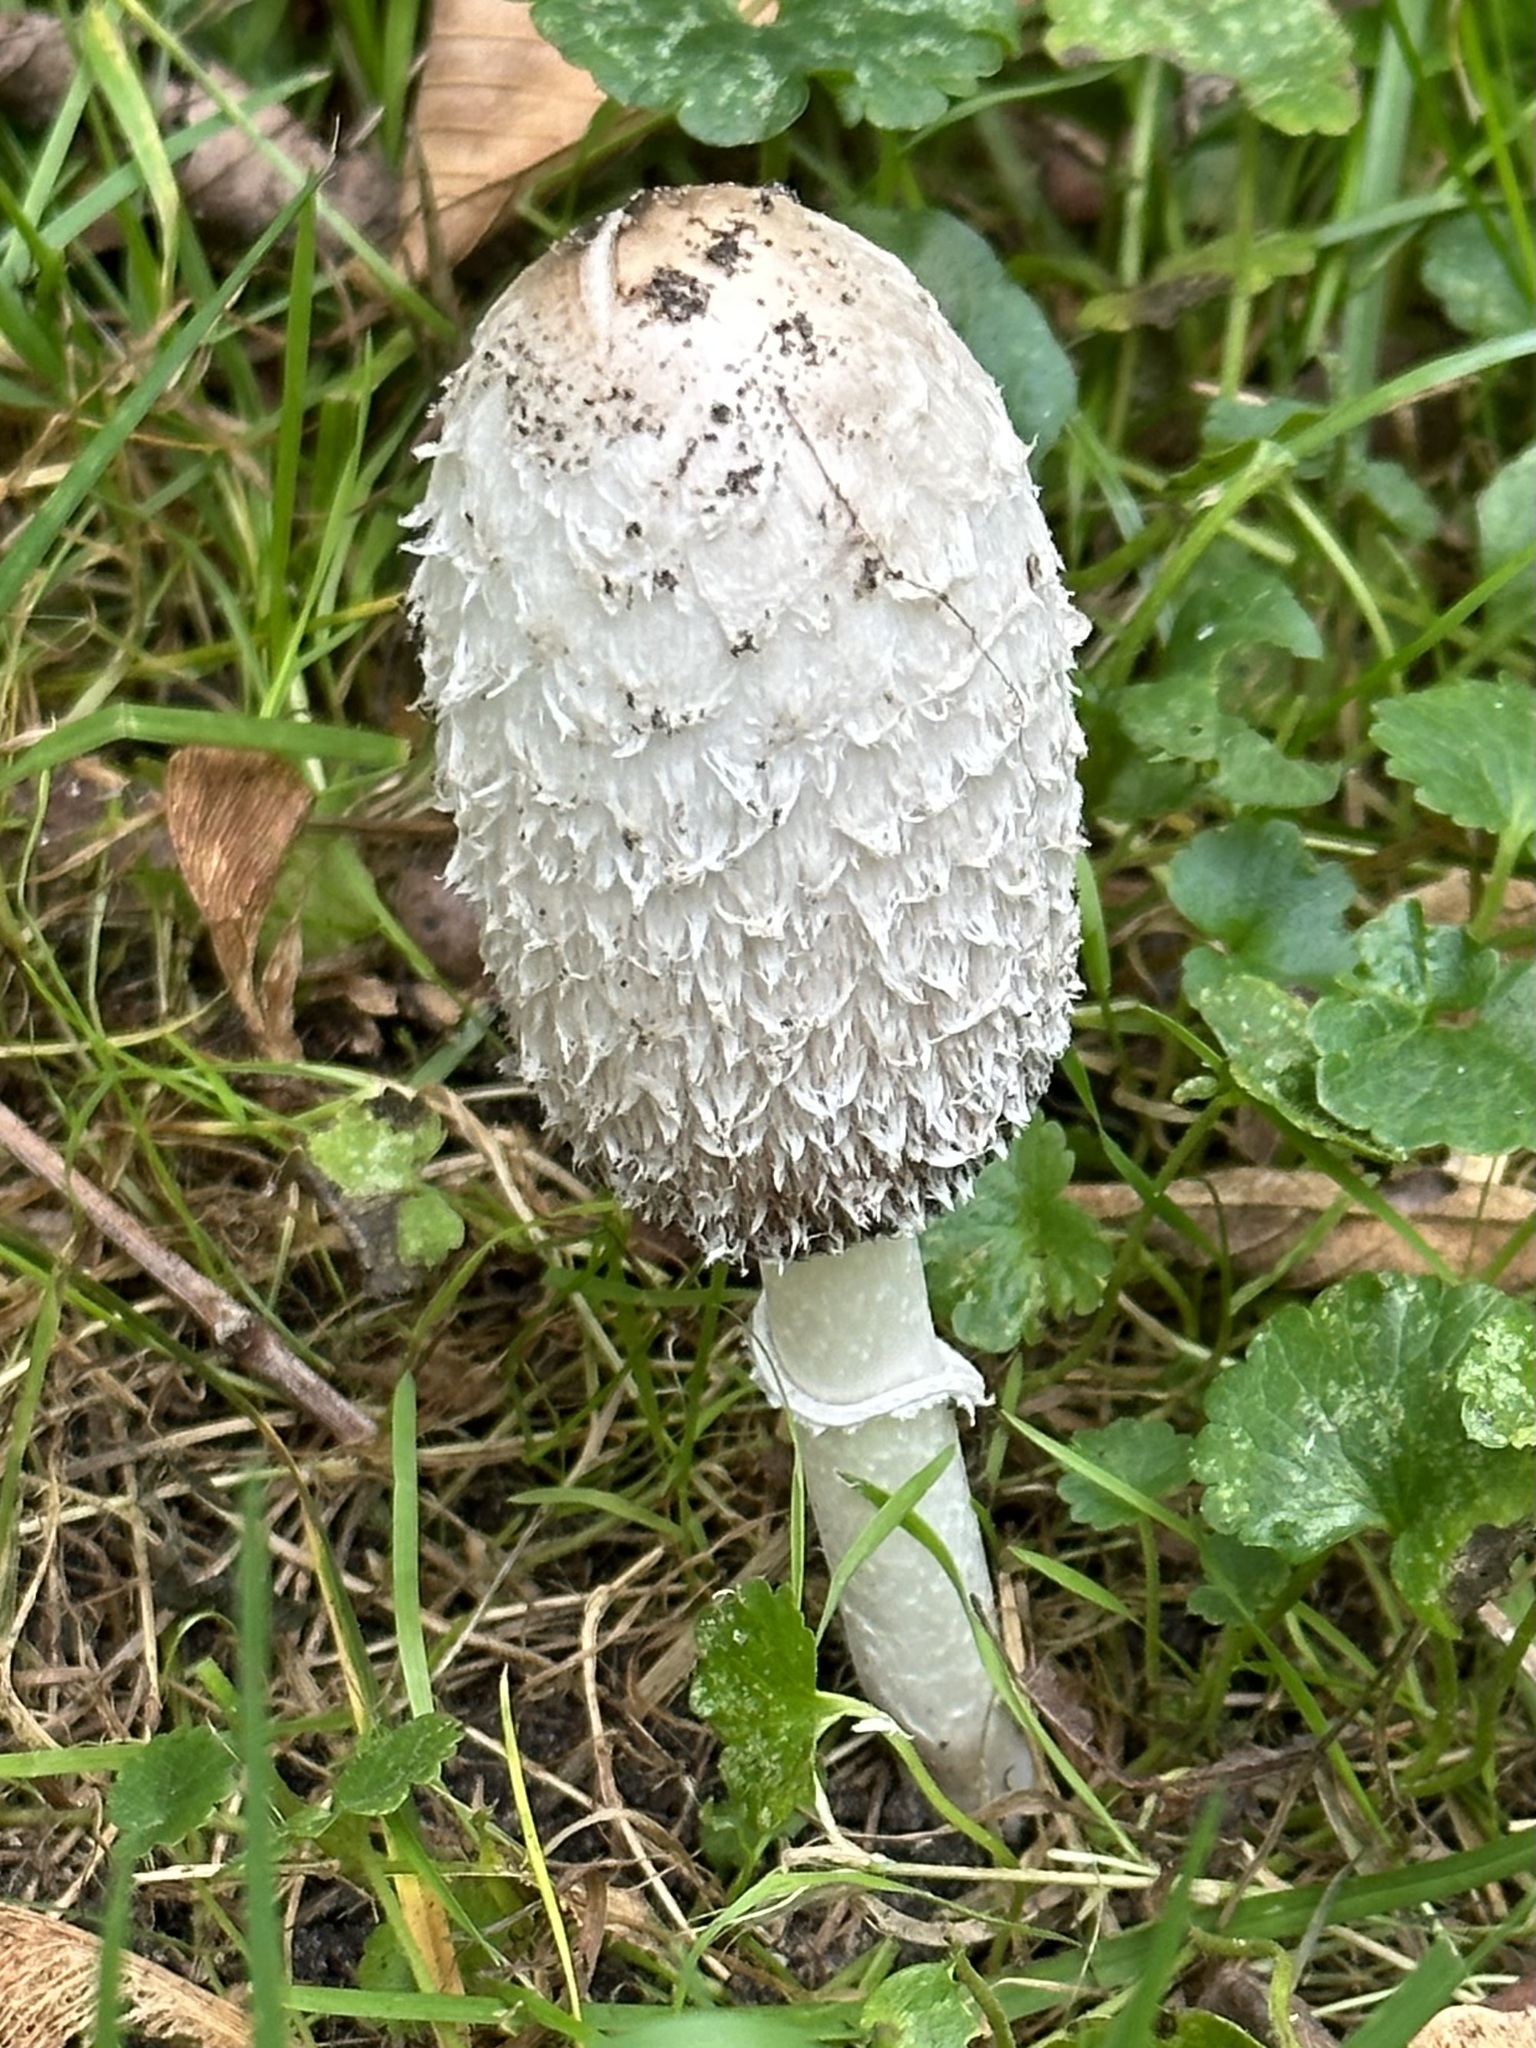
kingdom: Fungi
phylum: Basidiomycota
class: Agaricomycetes
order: Agaricales
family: Agaricaceae
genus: Coprinus
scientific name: Coprinus comatus
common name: Lawyer's wig
